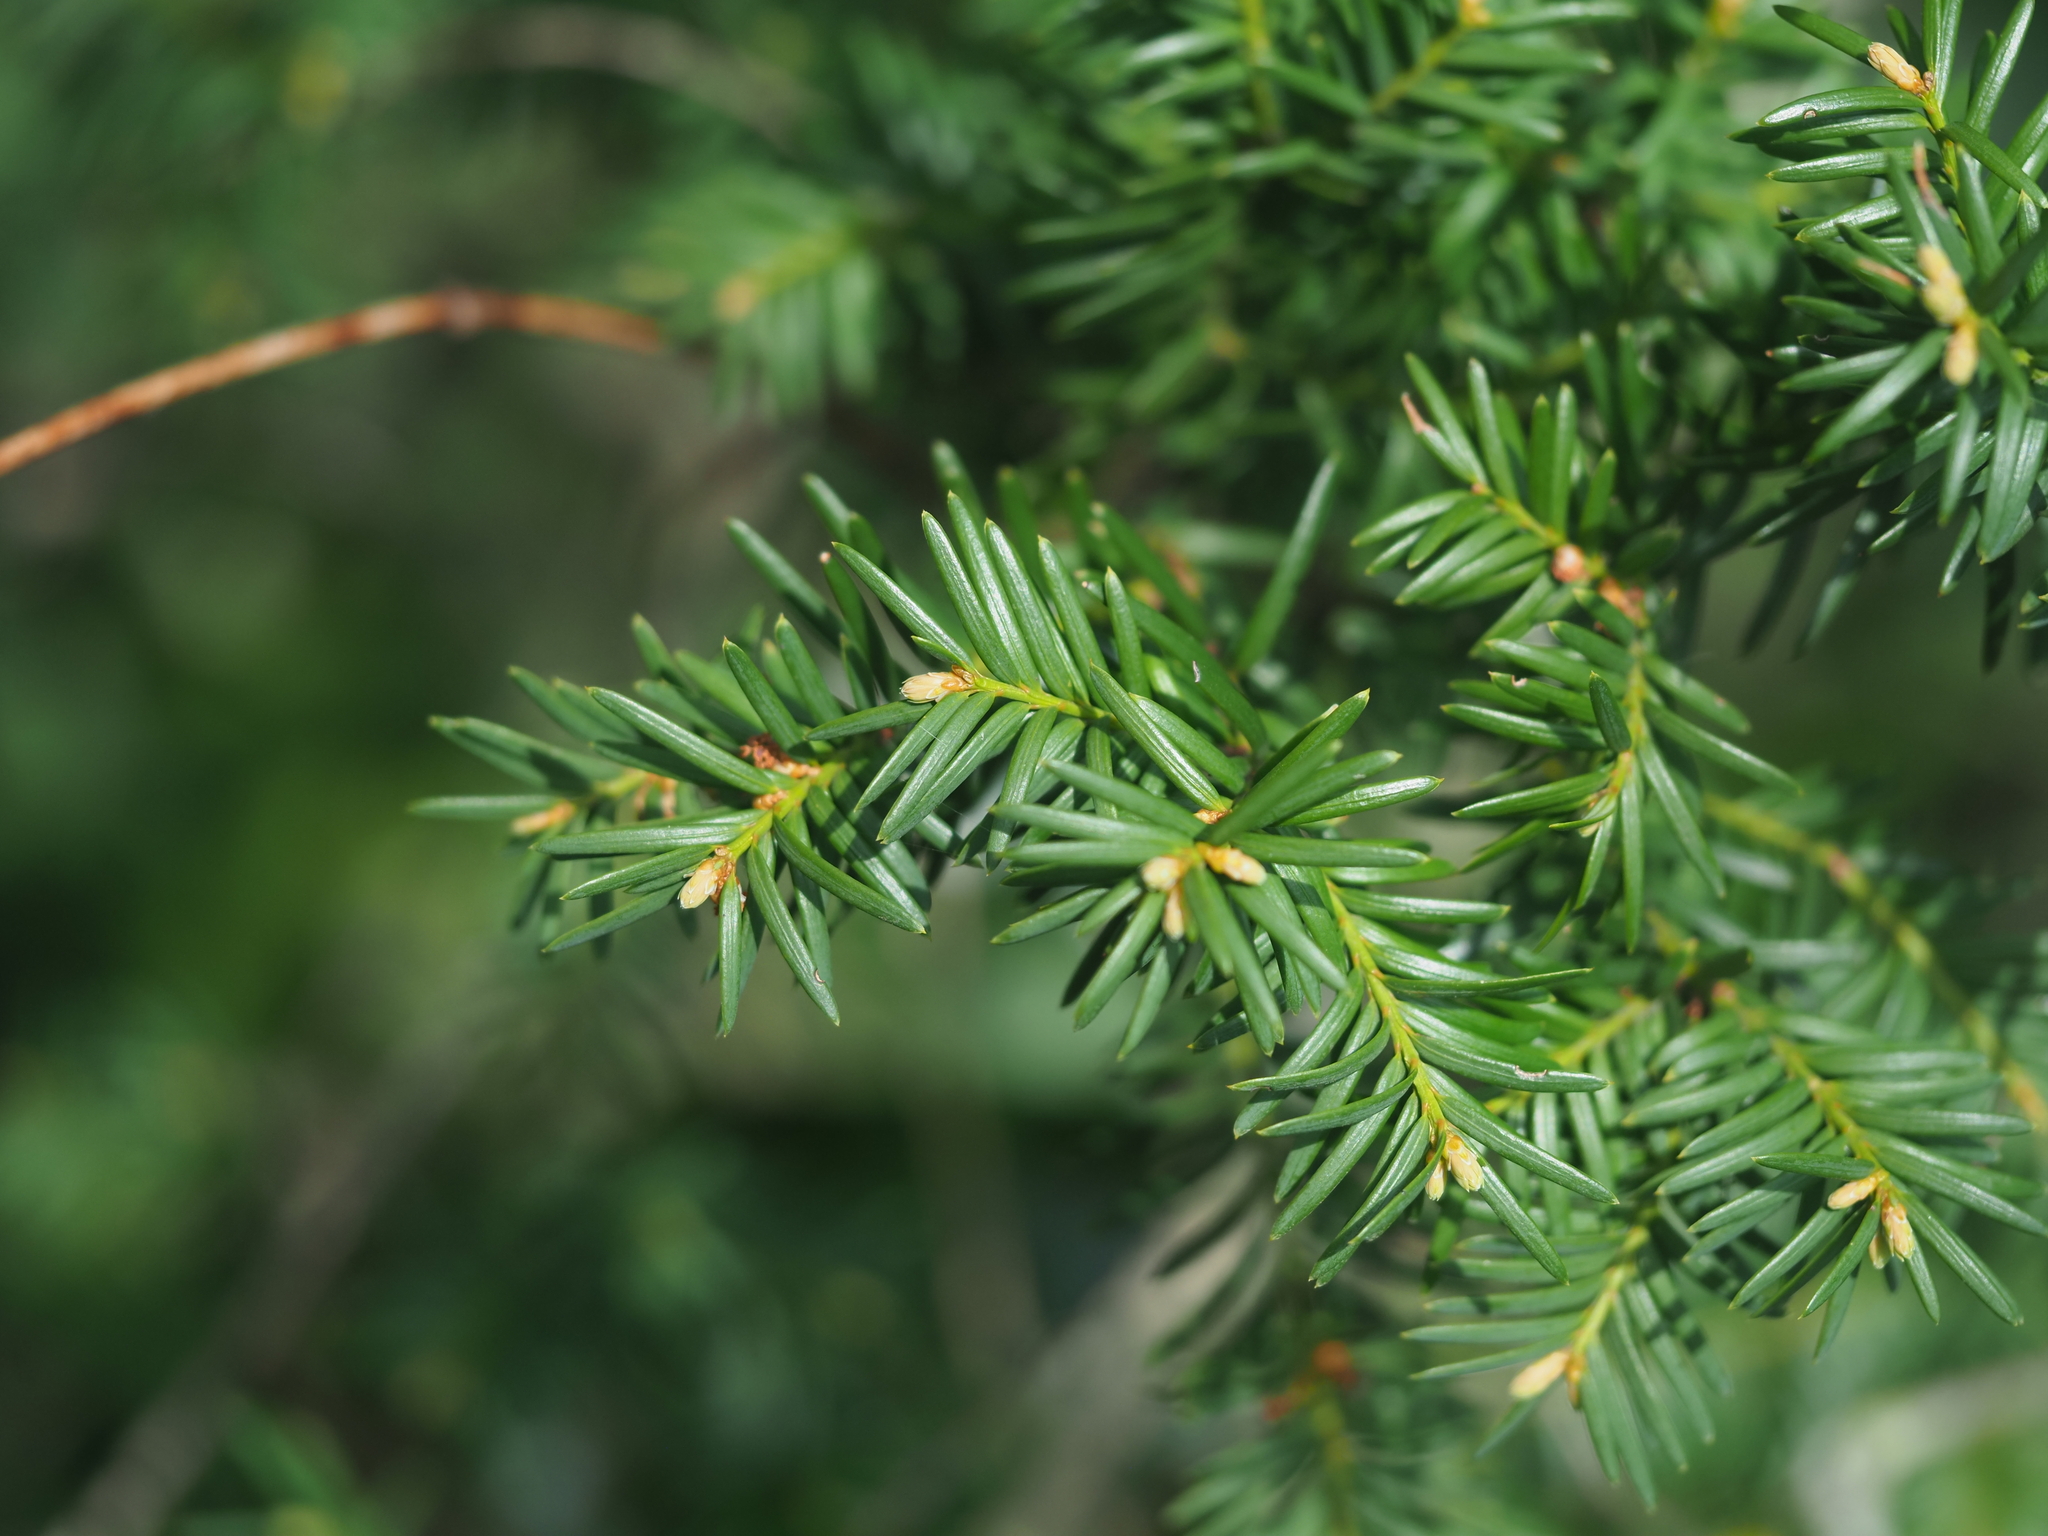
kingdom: Plantae
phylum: Tracheophyta
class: Pinopsida
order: Pinales
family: Taxaceae
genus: Taxus
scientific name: Taxus baccata
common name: Yew
